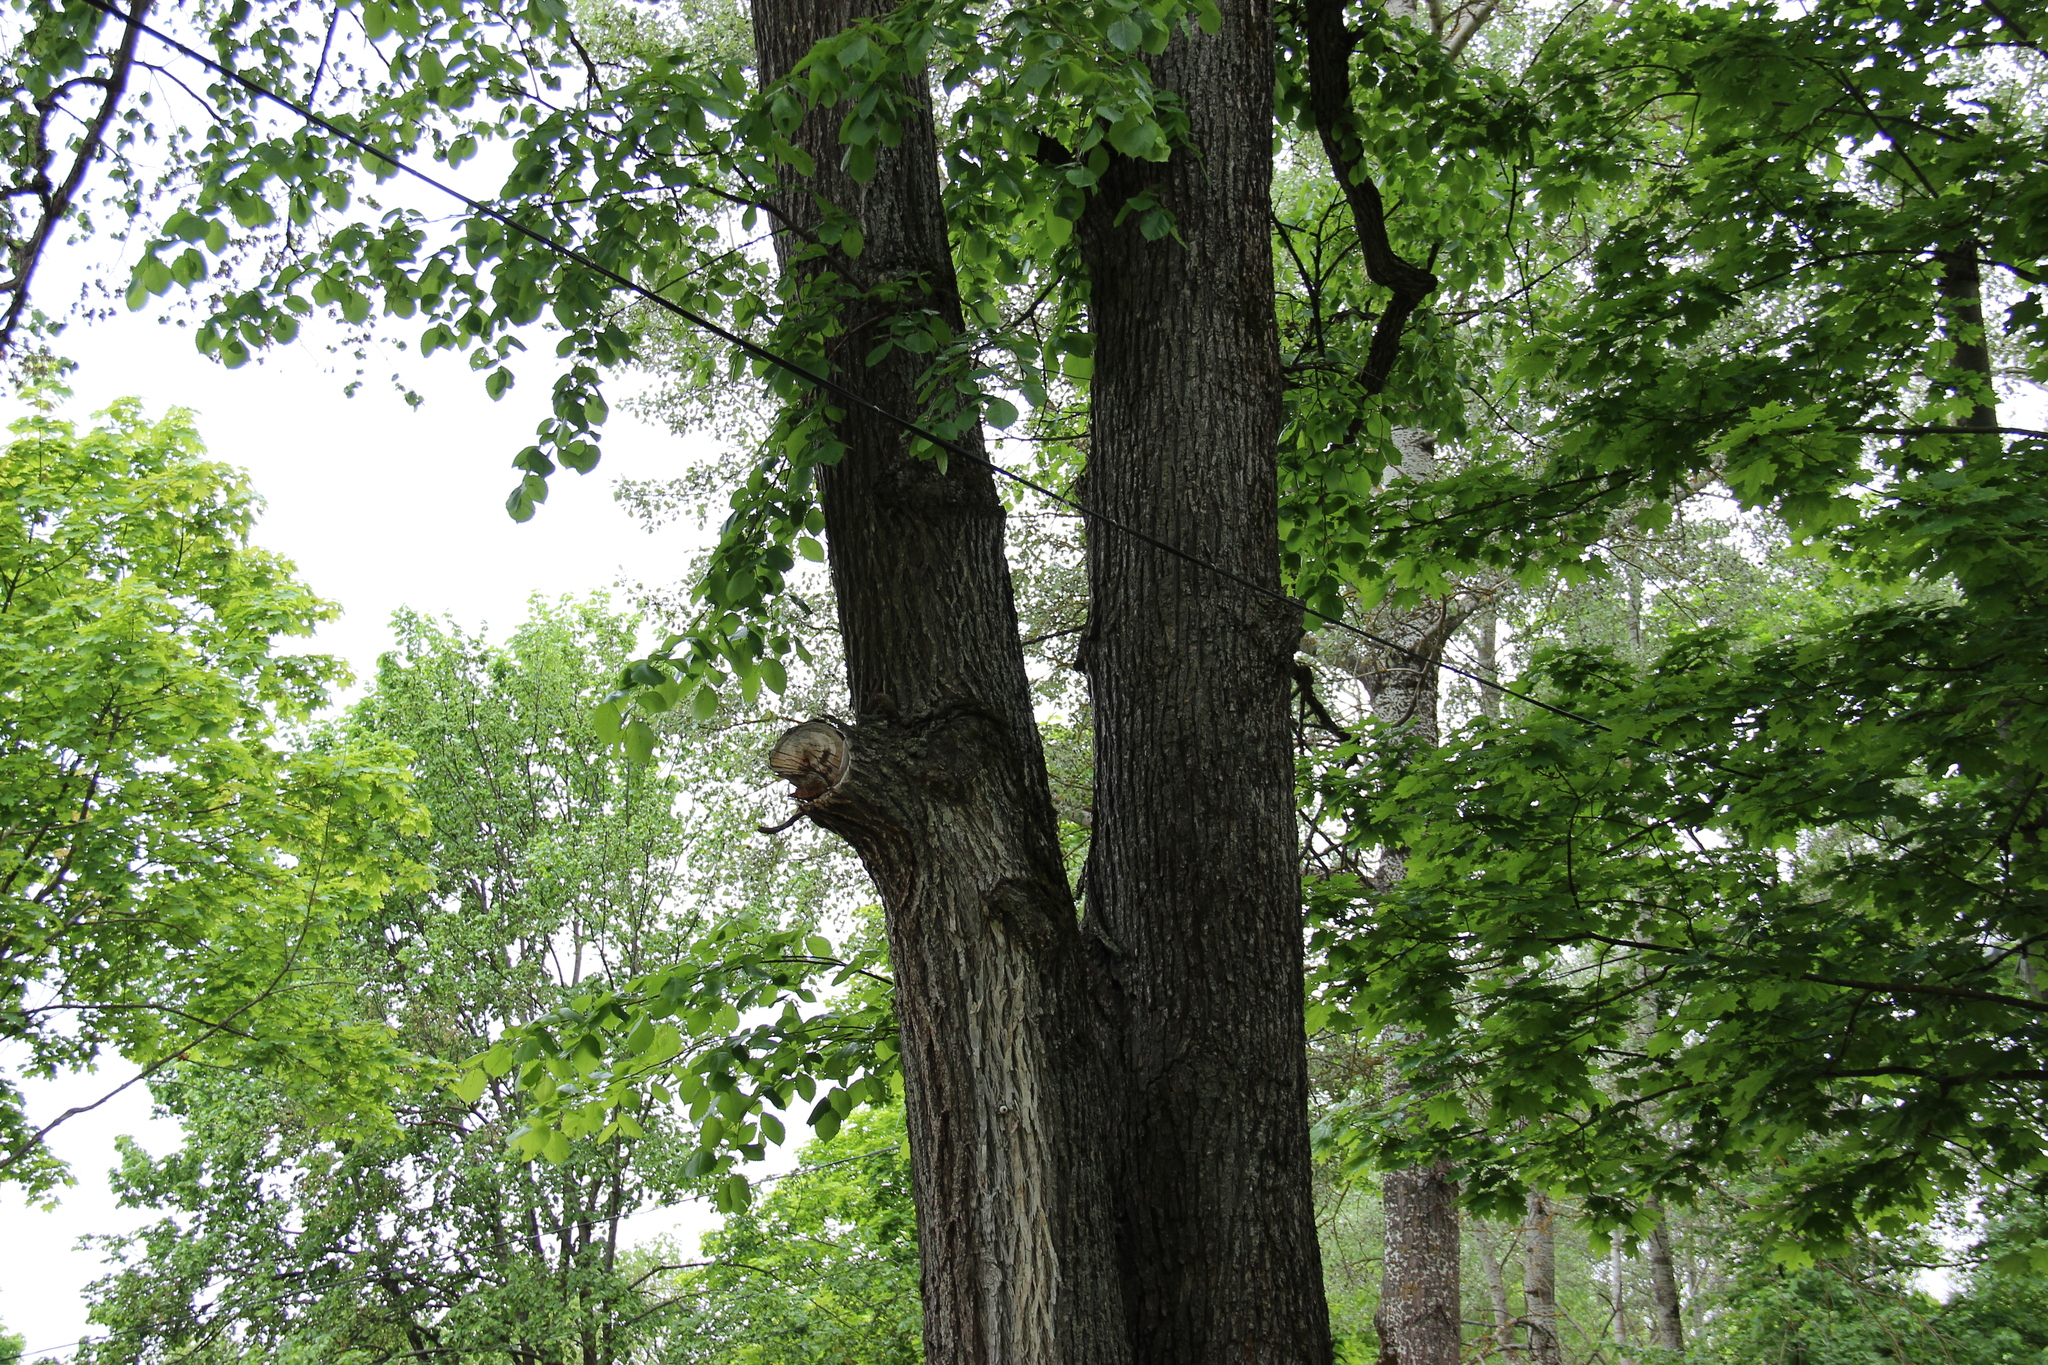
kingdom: Plantae
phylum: Tracheophyta
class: Magnoliopsida
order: Rosales
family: Ulmaceae
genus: Ulmus
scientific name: Ulmus laevis
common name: European white-elm
